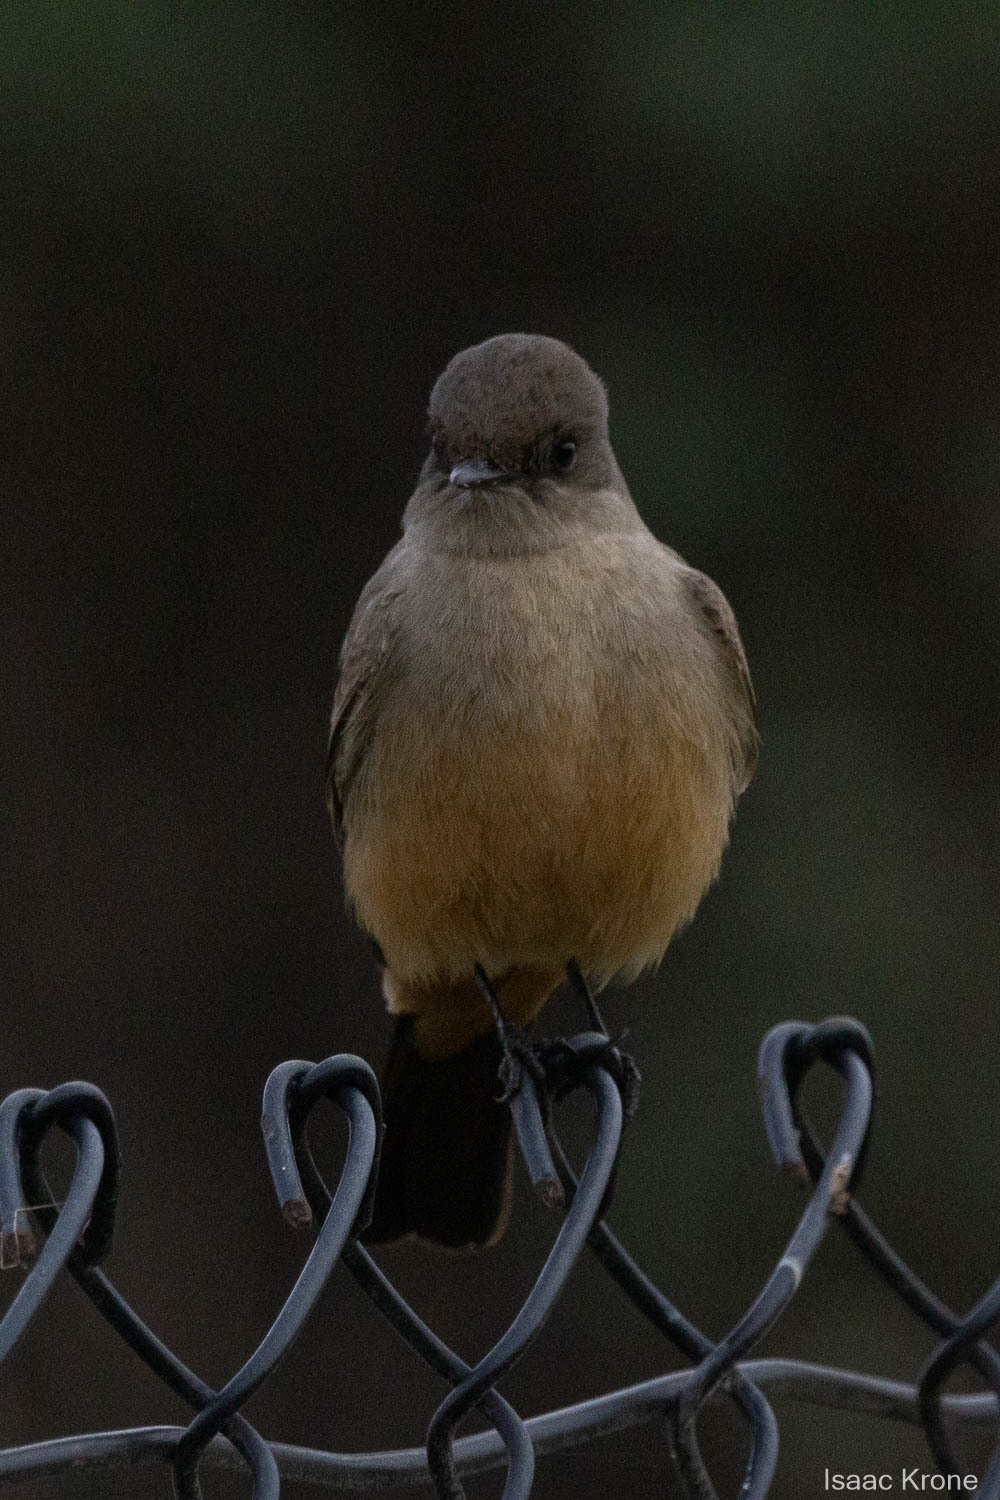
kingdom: Animalia
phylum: Chordata
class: Aves
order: Passeriformes
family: Tyrannidae
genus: Sayornis
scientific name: Sayornis saya
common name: Say's phoebe
